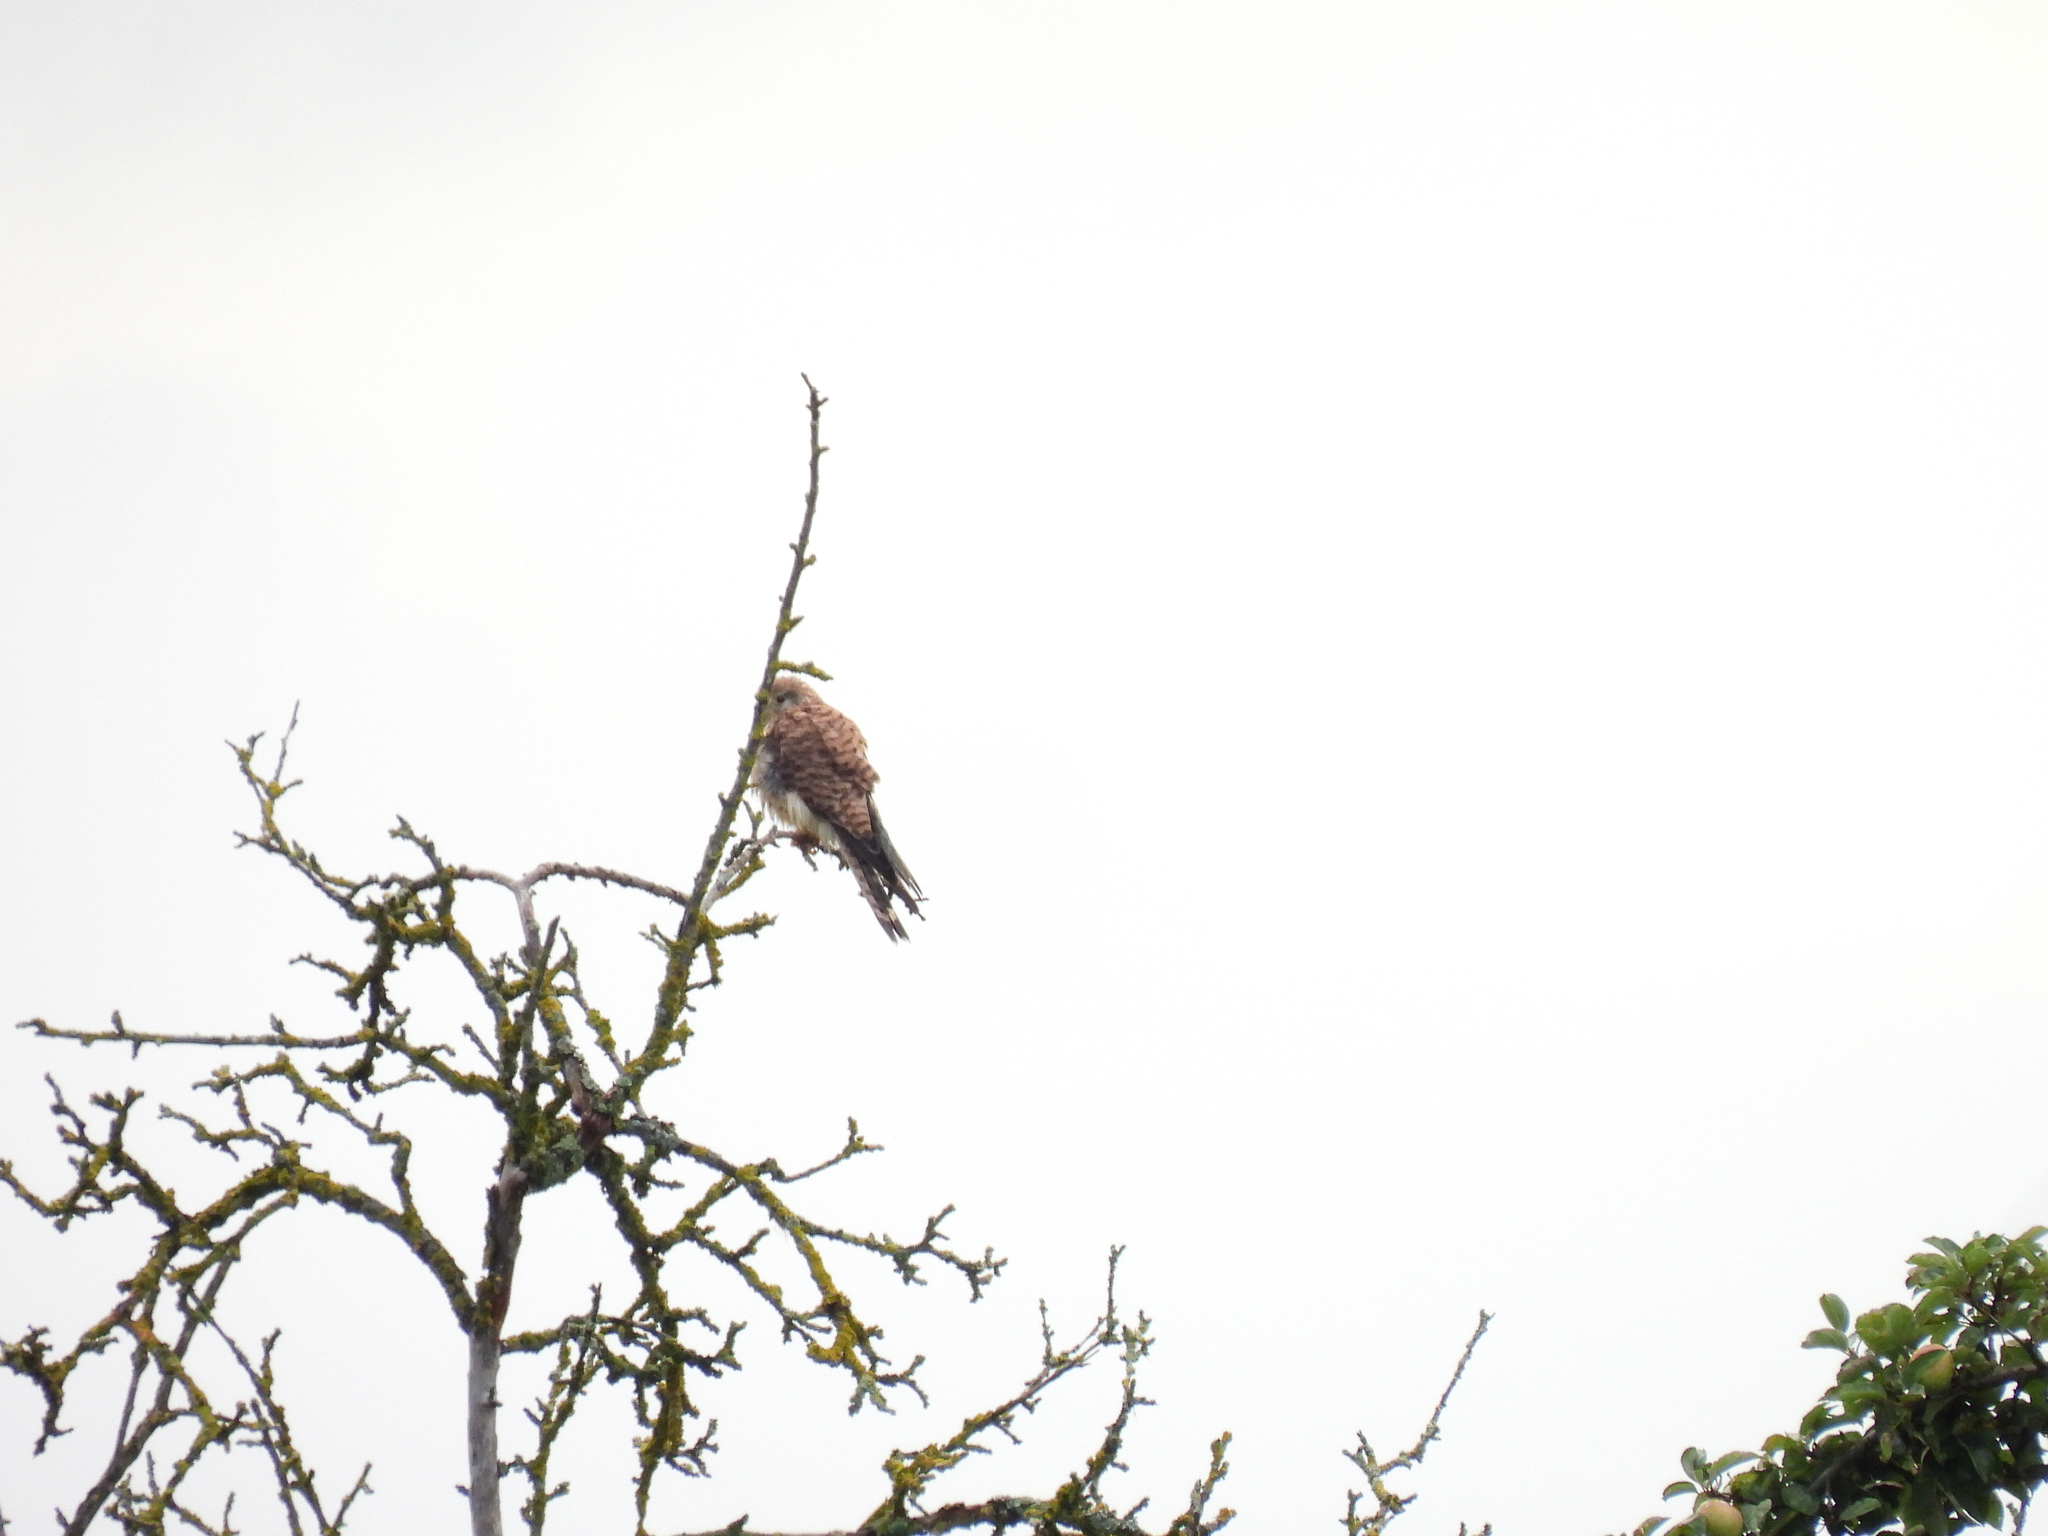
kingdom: Animalia
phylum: Chordata
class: Aves
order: Falconiformes
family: Falconidae
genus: Falco
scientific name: Falco tinnunculus
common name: Common kestrel
